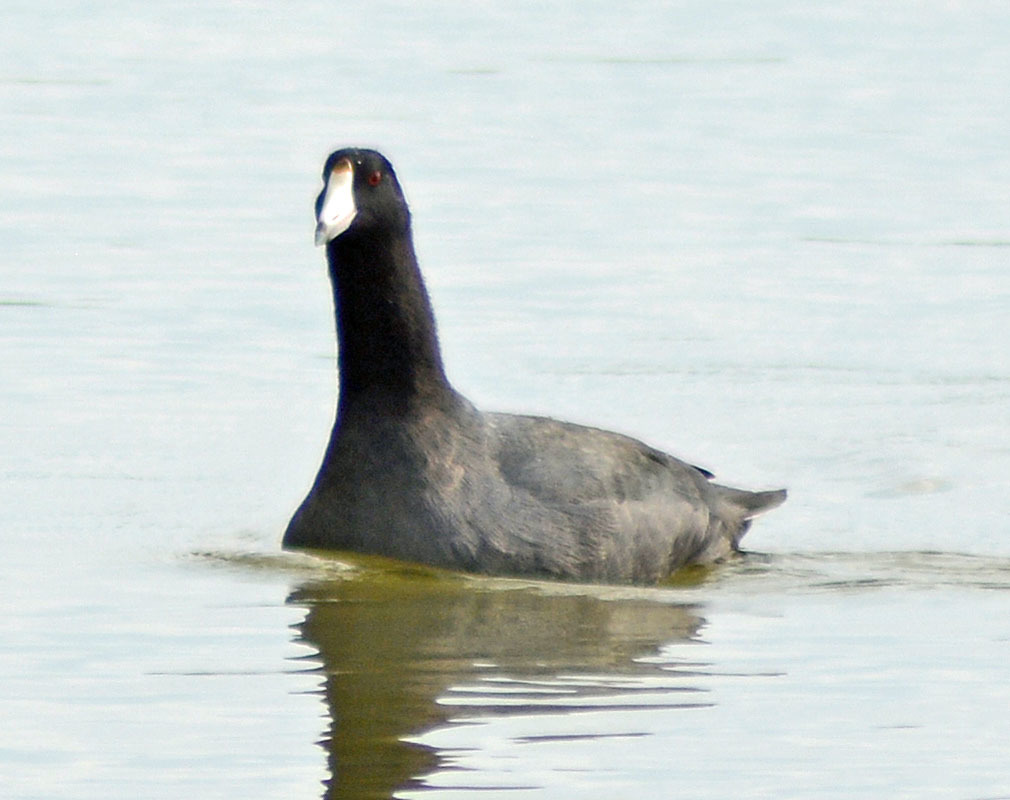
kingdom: Animalia
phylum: Chordata
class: Aves
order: Gruiformes
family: Rallidae
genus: Fulica
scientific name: Fulica americana
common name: American coot
